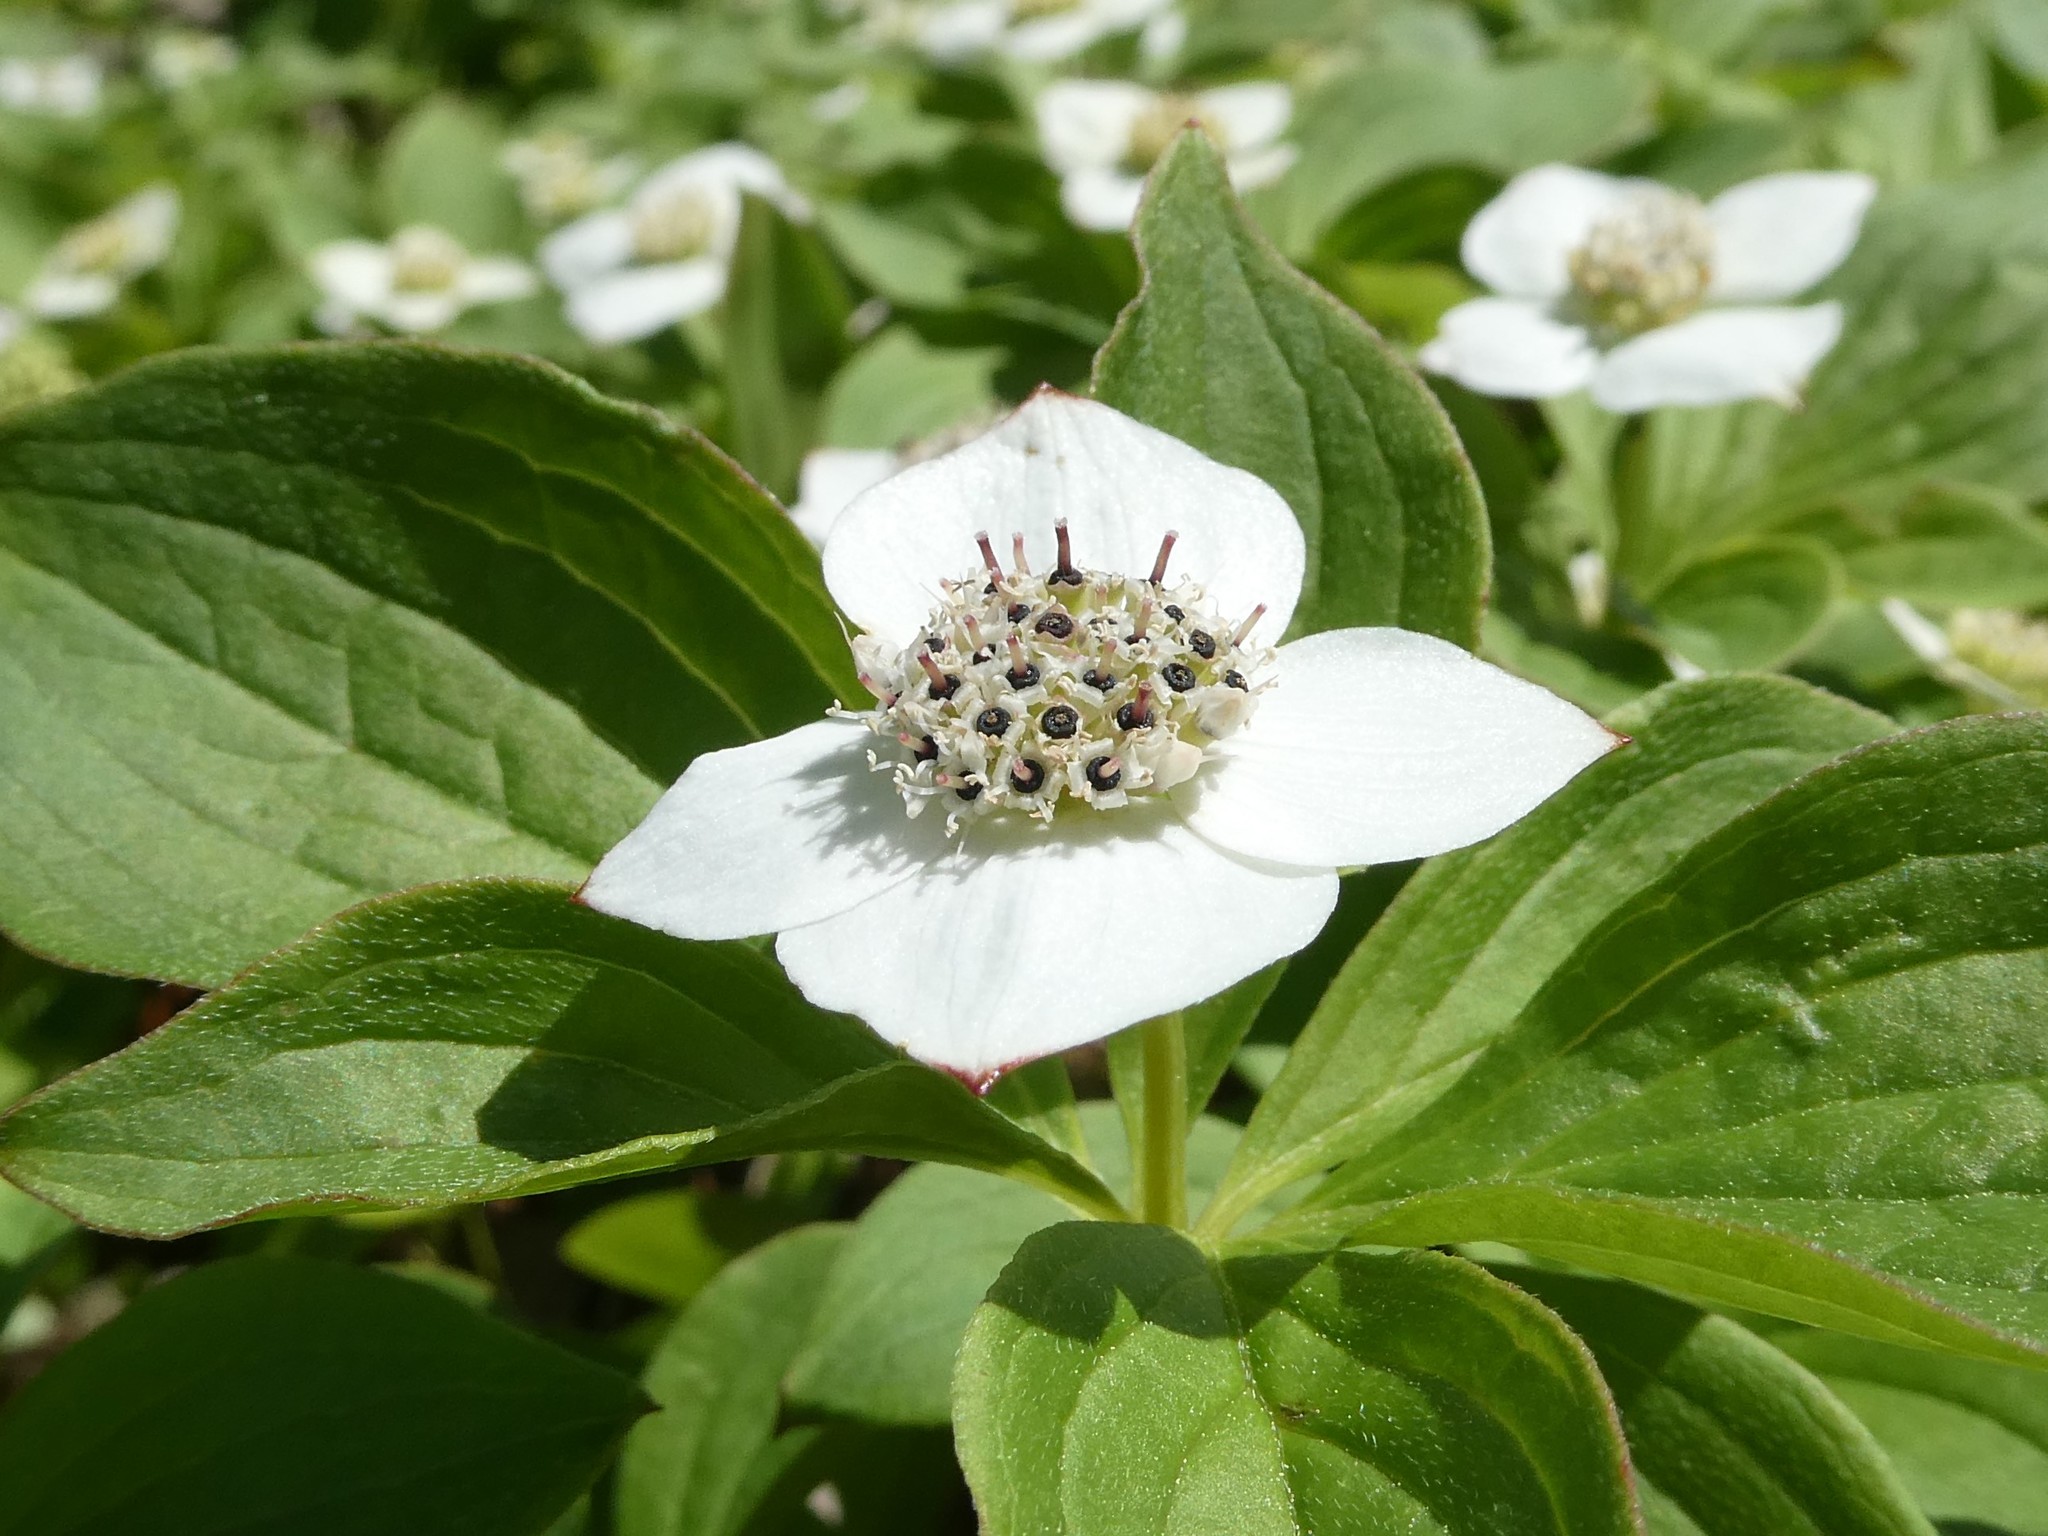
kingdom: Plantae
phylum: Tracheophyta
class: Magnoliopsida
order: Cornales
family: Cornaceae
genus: Cornus
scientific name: Cornus canadensis
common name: Creeping dogwood
